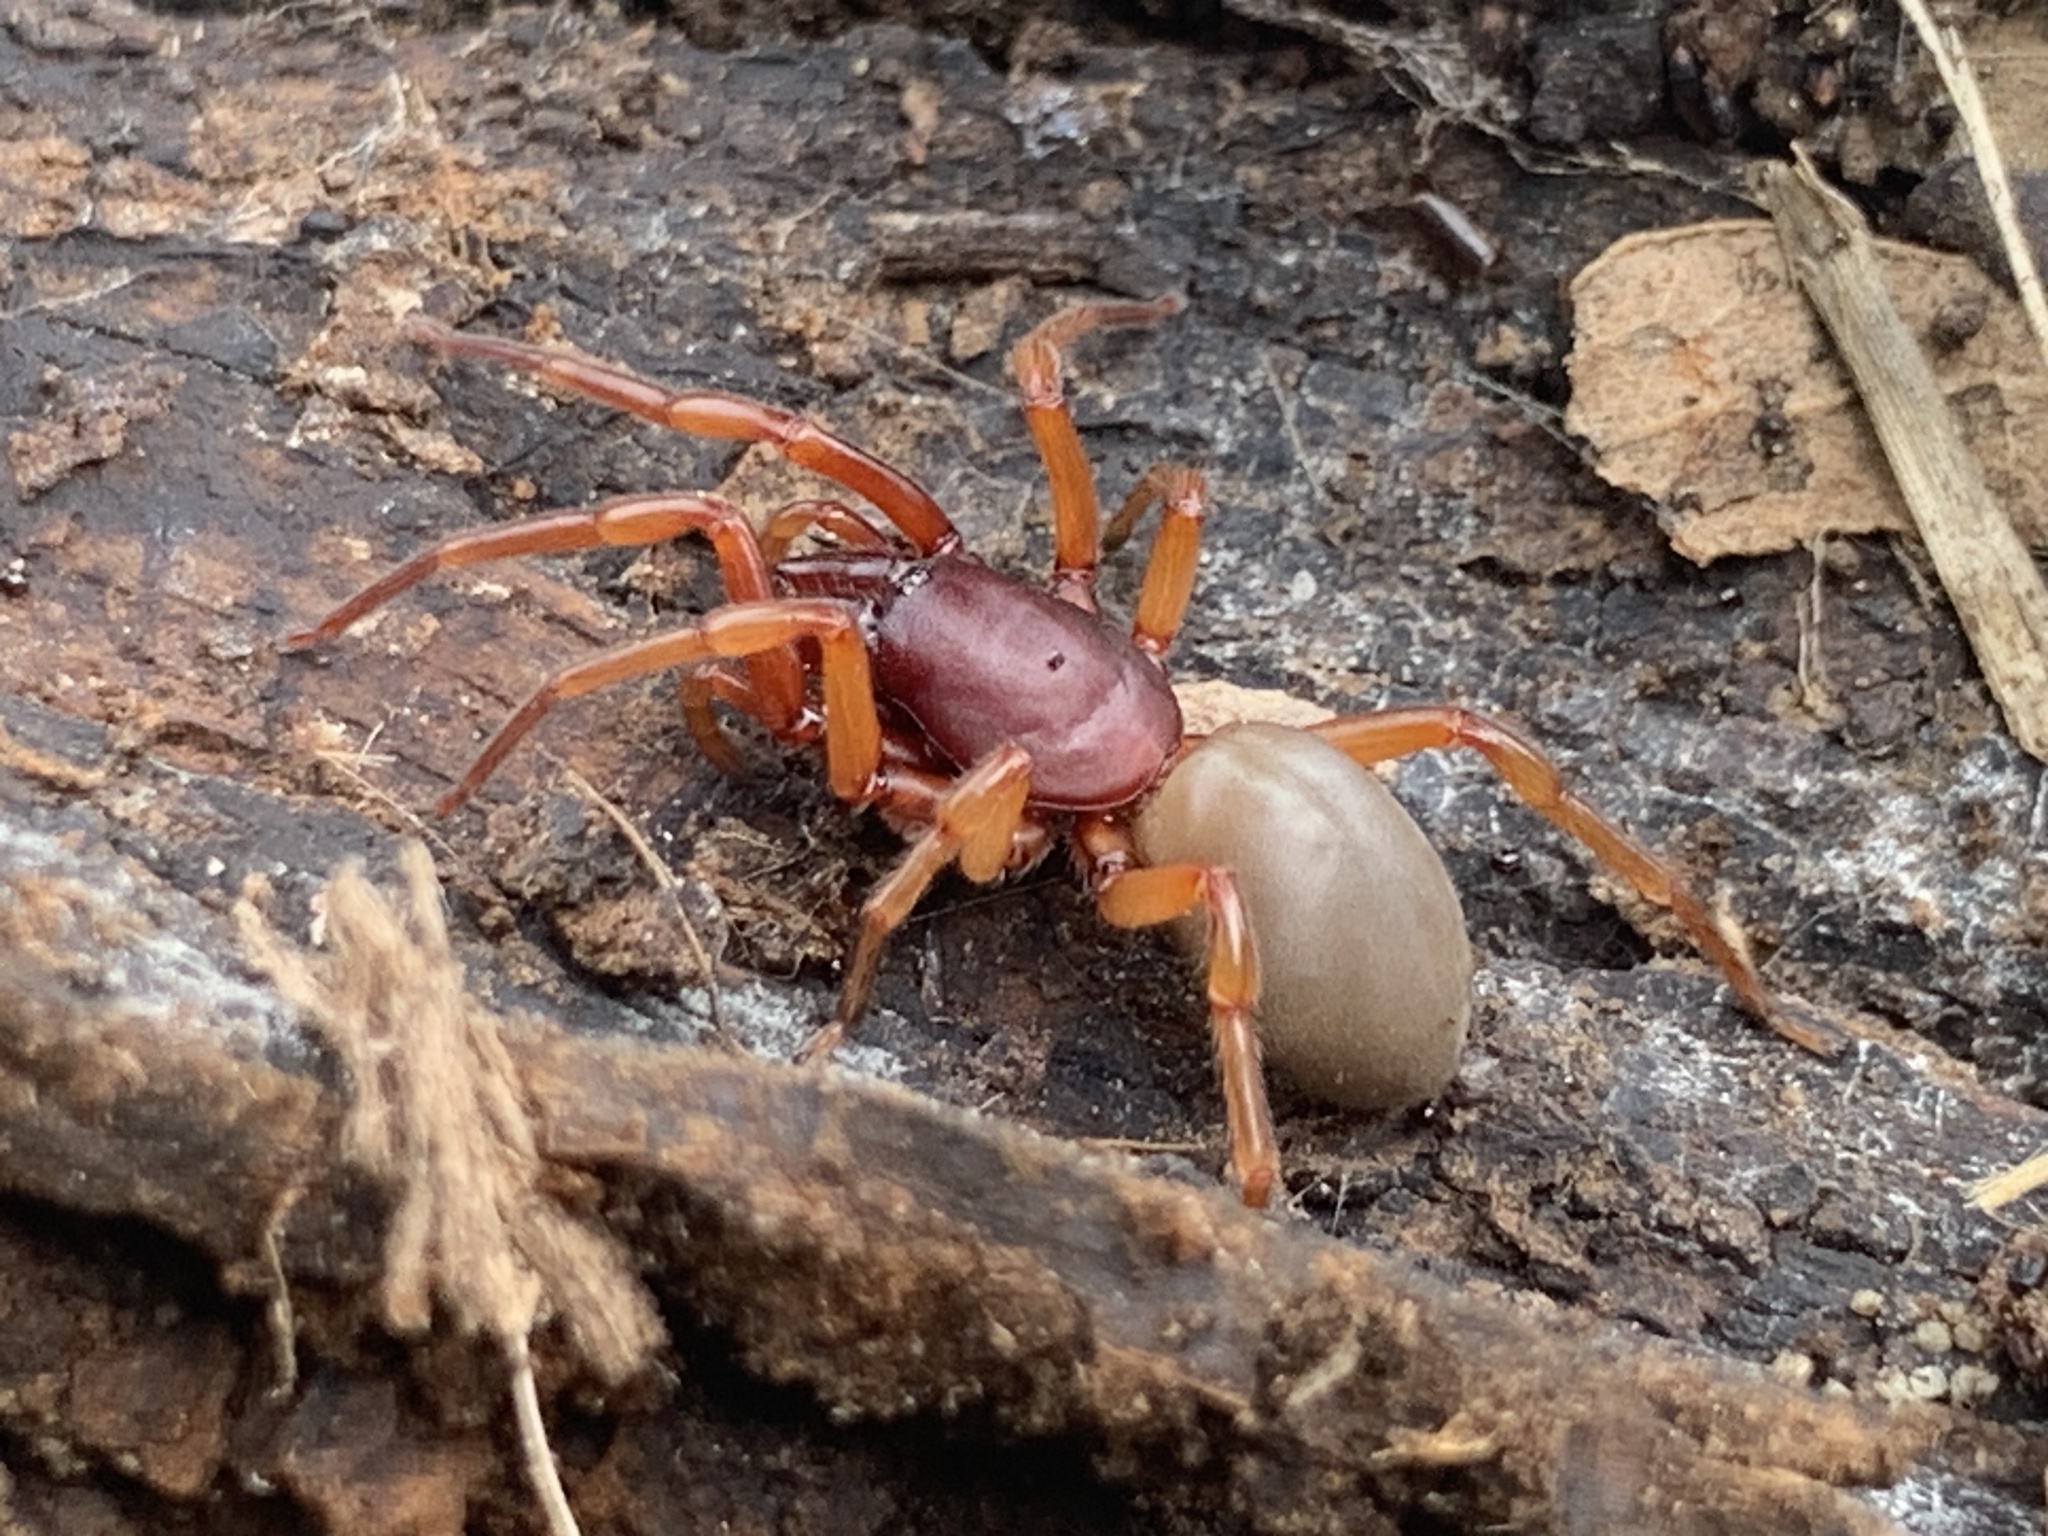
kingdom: Animalia
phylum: Arthropoda
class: Arachnida
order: Araneae
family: Dysderidae
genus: Dysdera
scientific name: Dysdera crocata
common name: Woodlouse spider
